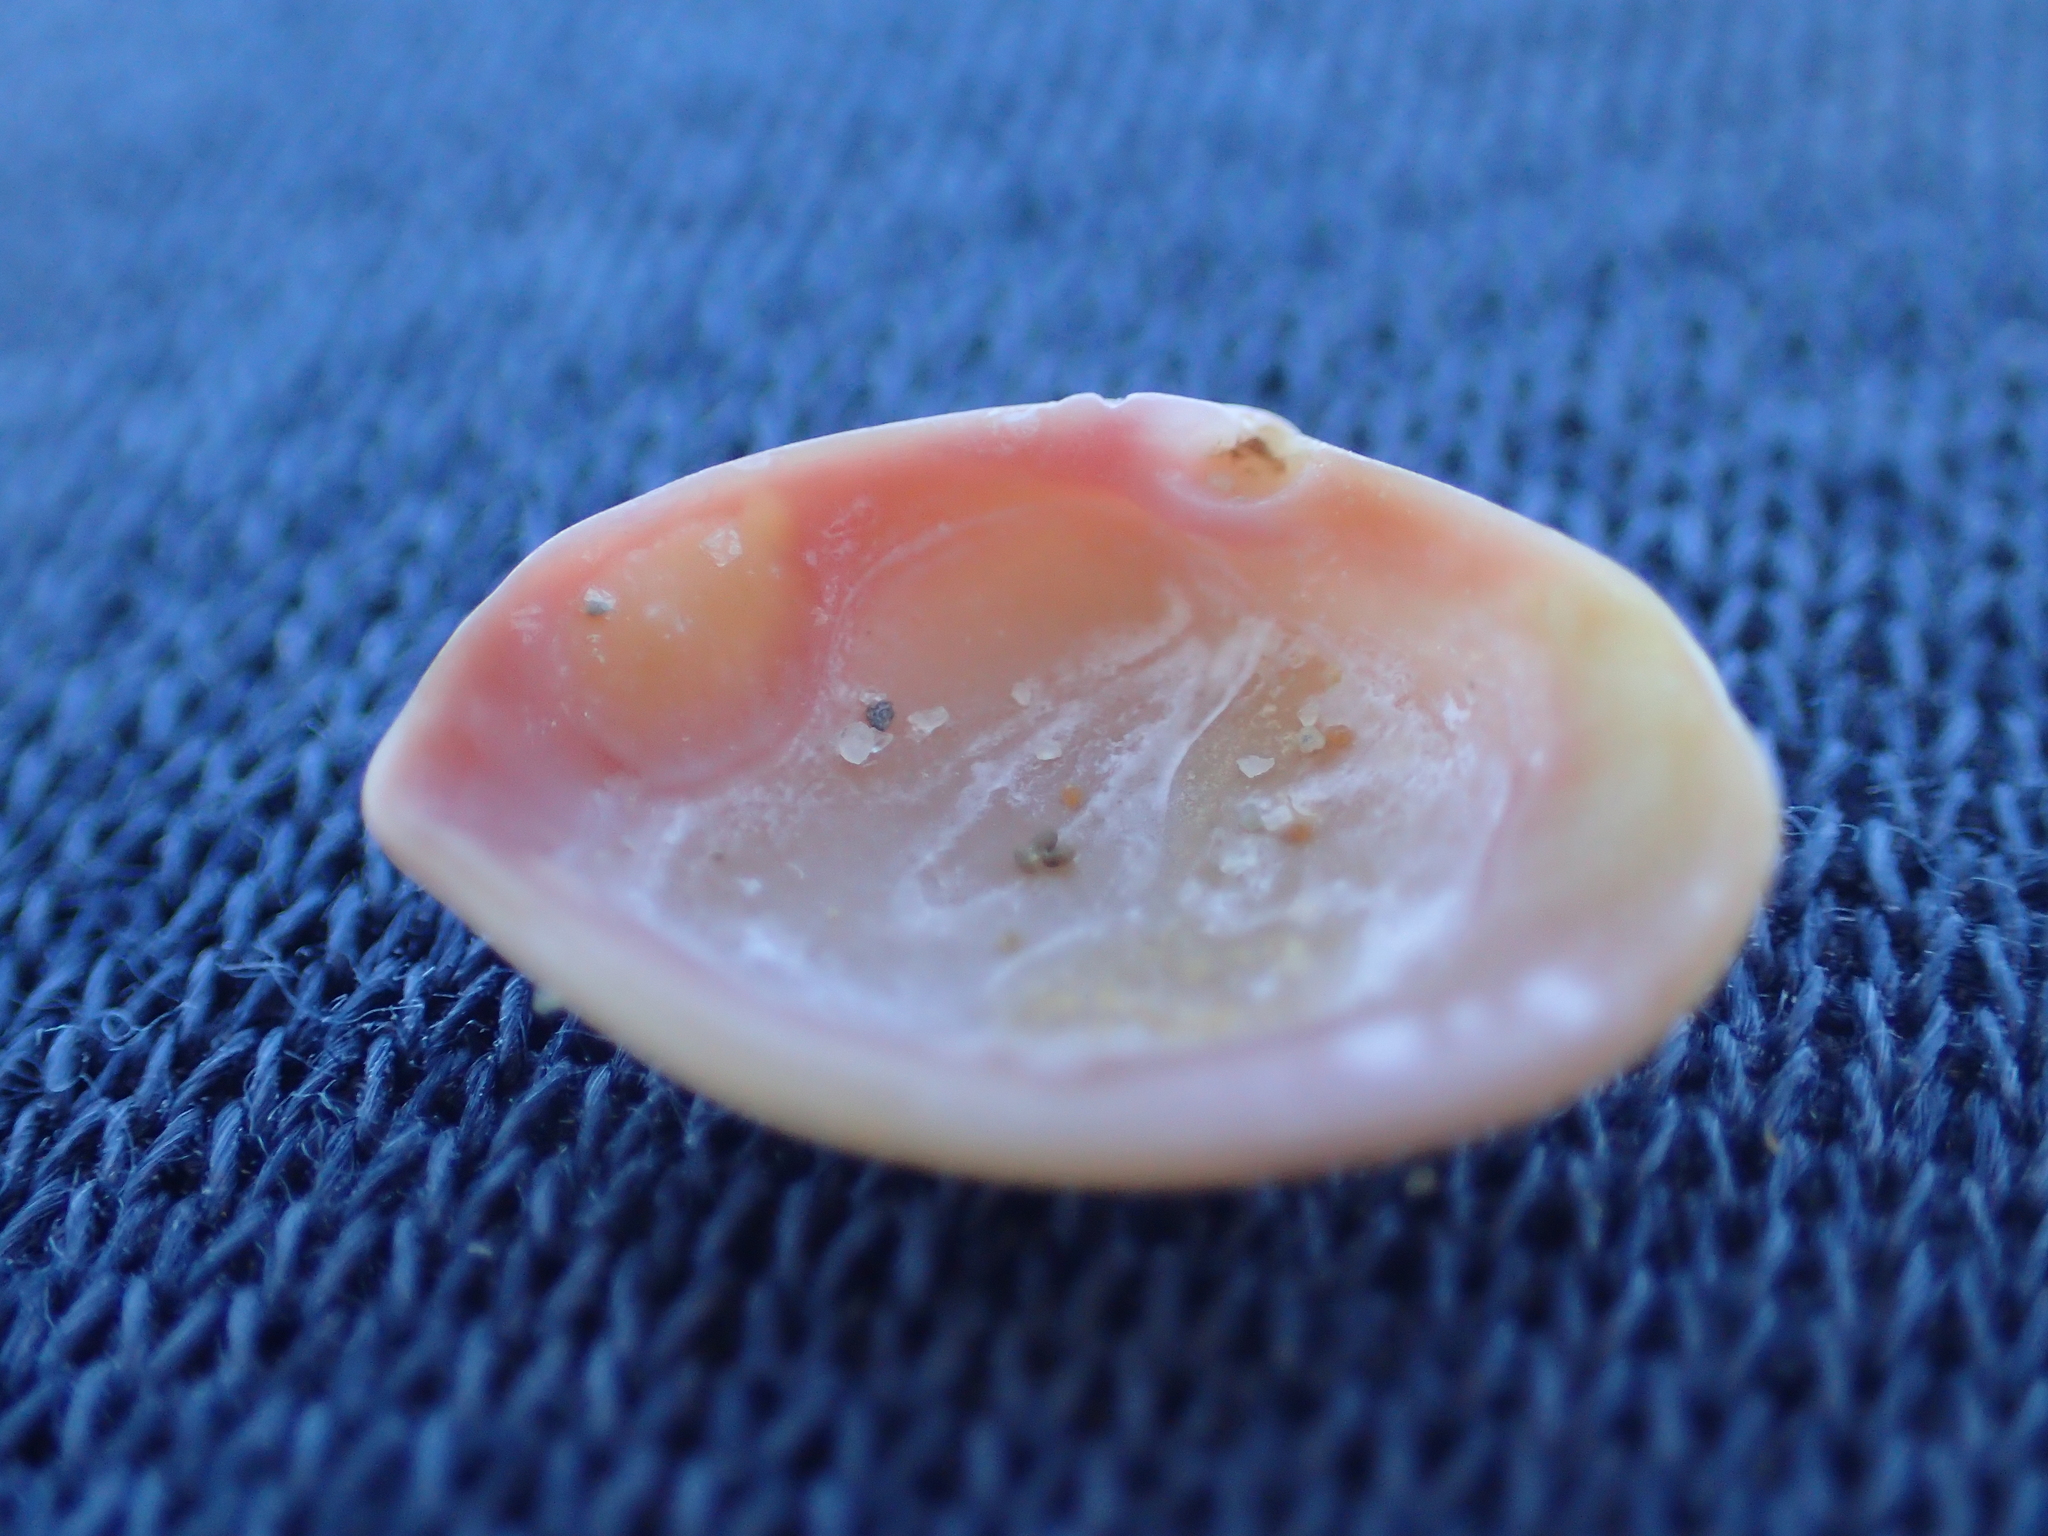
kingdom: Animalia
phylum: Mollusca
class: Bivalvia
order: Myida
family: Corbulidae
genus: Corbula
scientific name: Corbula zelandica
